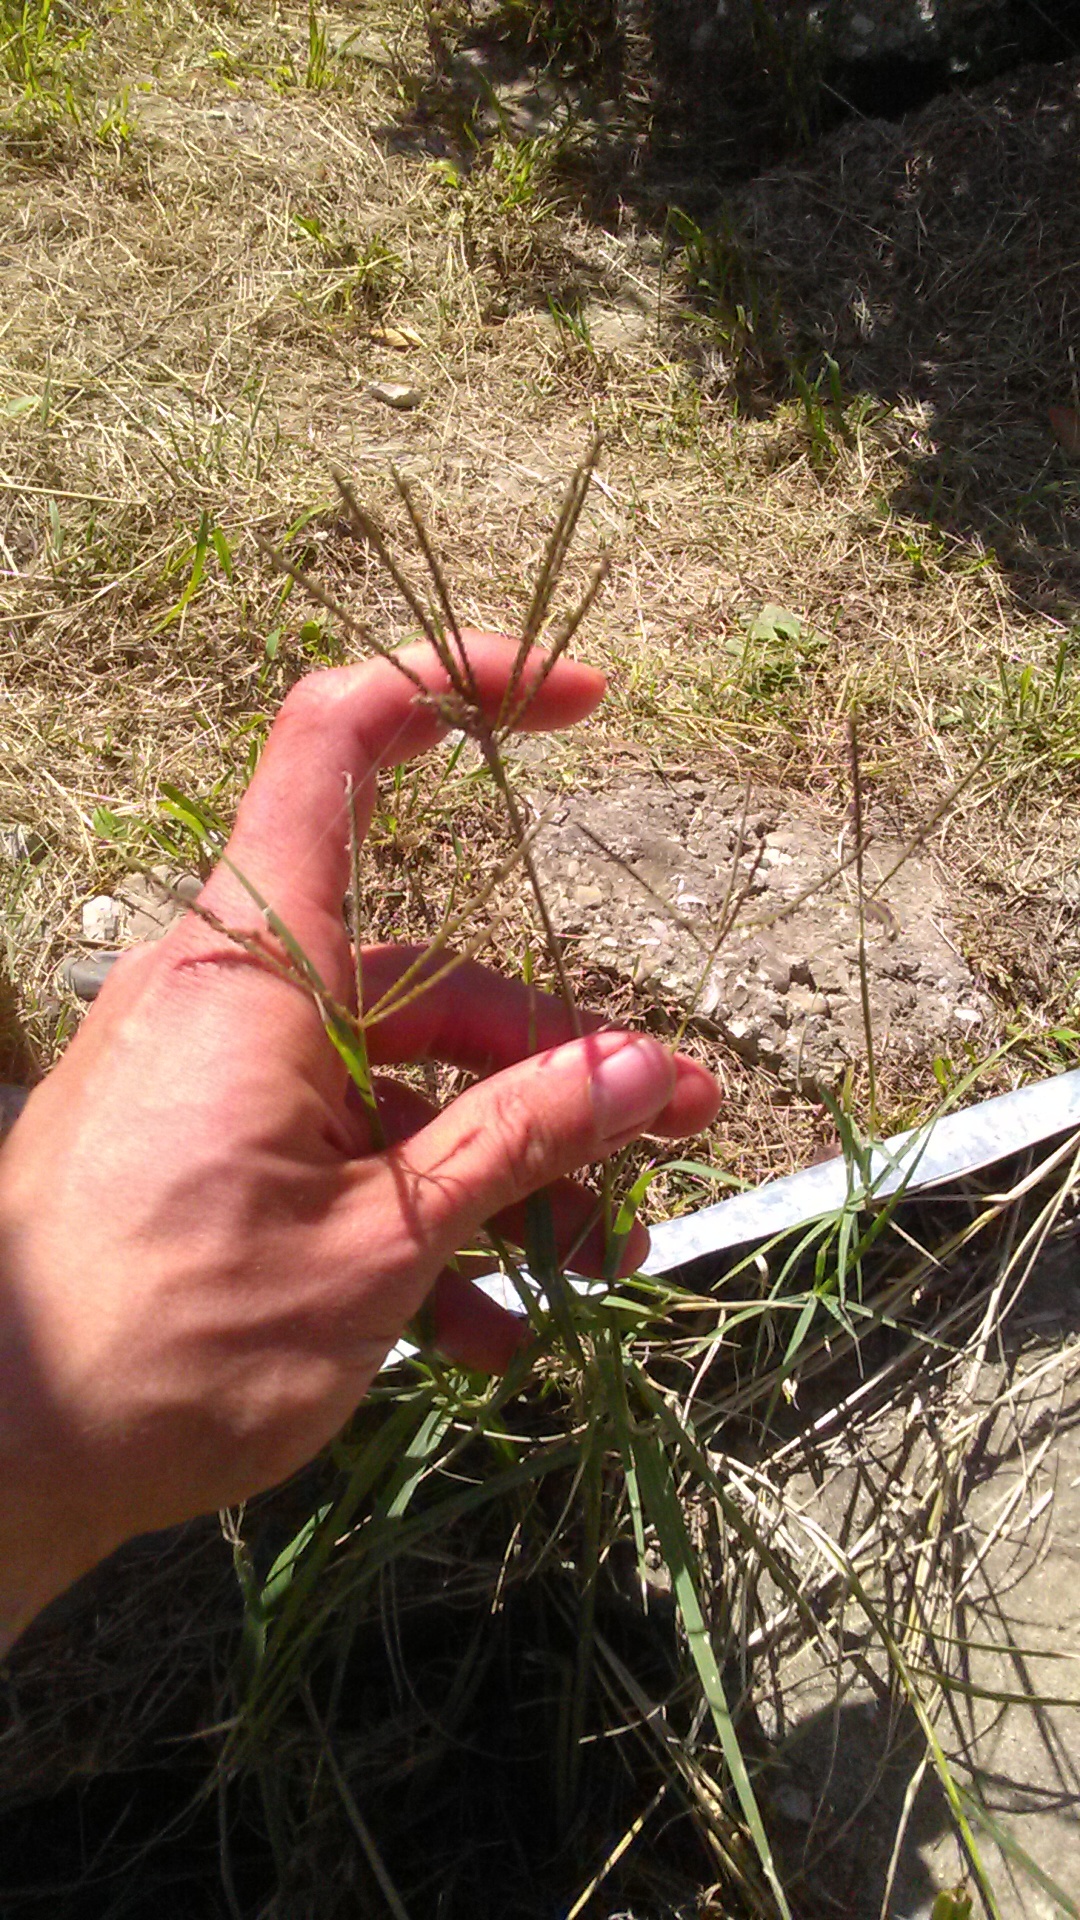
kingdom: Plantae
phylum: Tracheophyta
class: Liliopsida
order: Poales
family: Poaceae
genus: Cynodon
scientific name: Cynodon dactylon
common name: Bermuda grass
